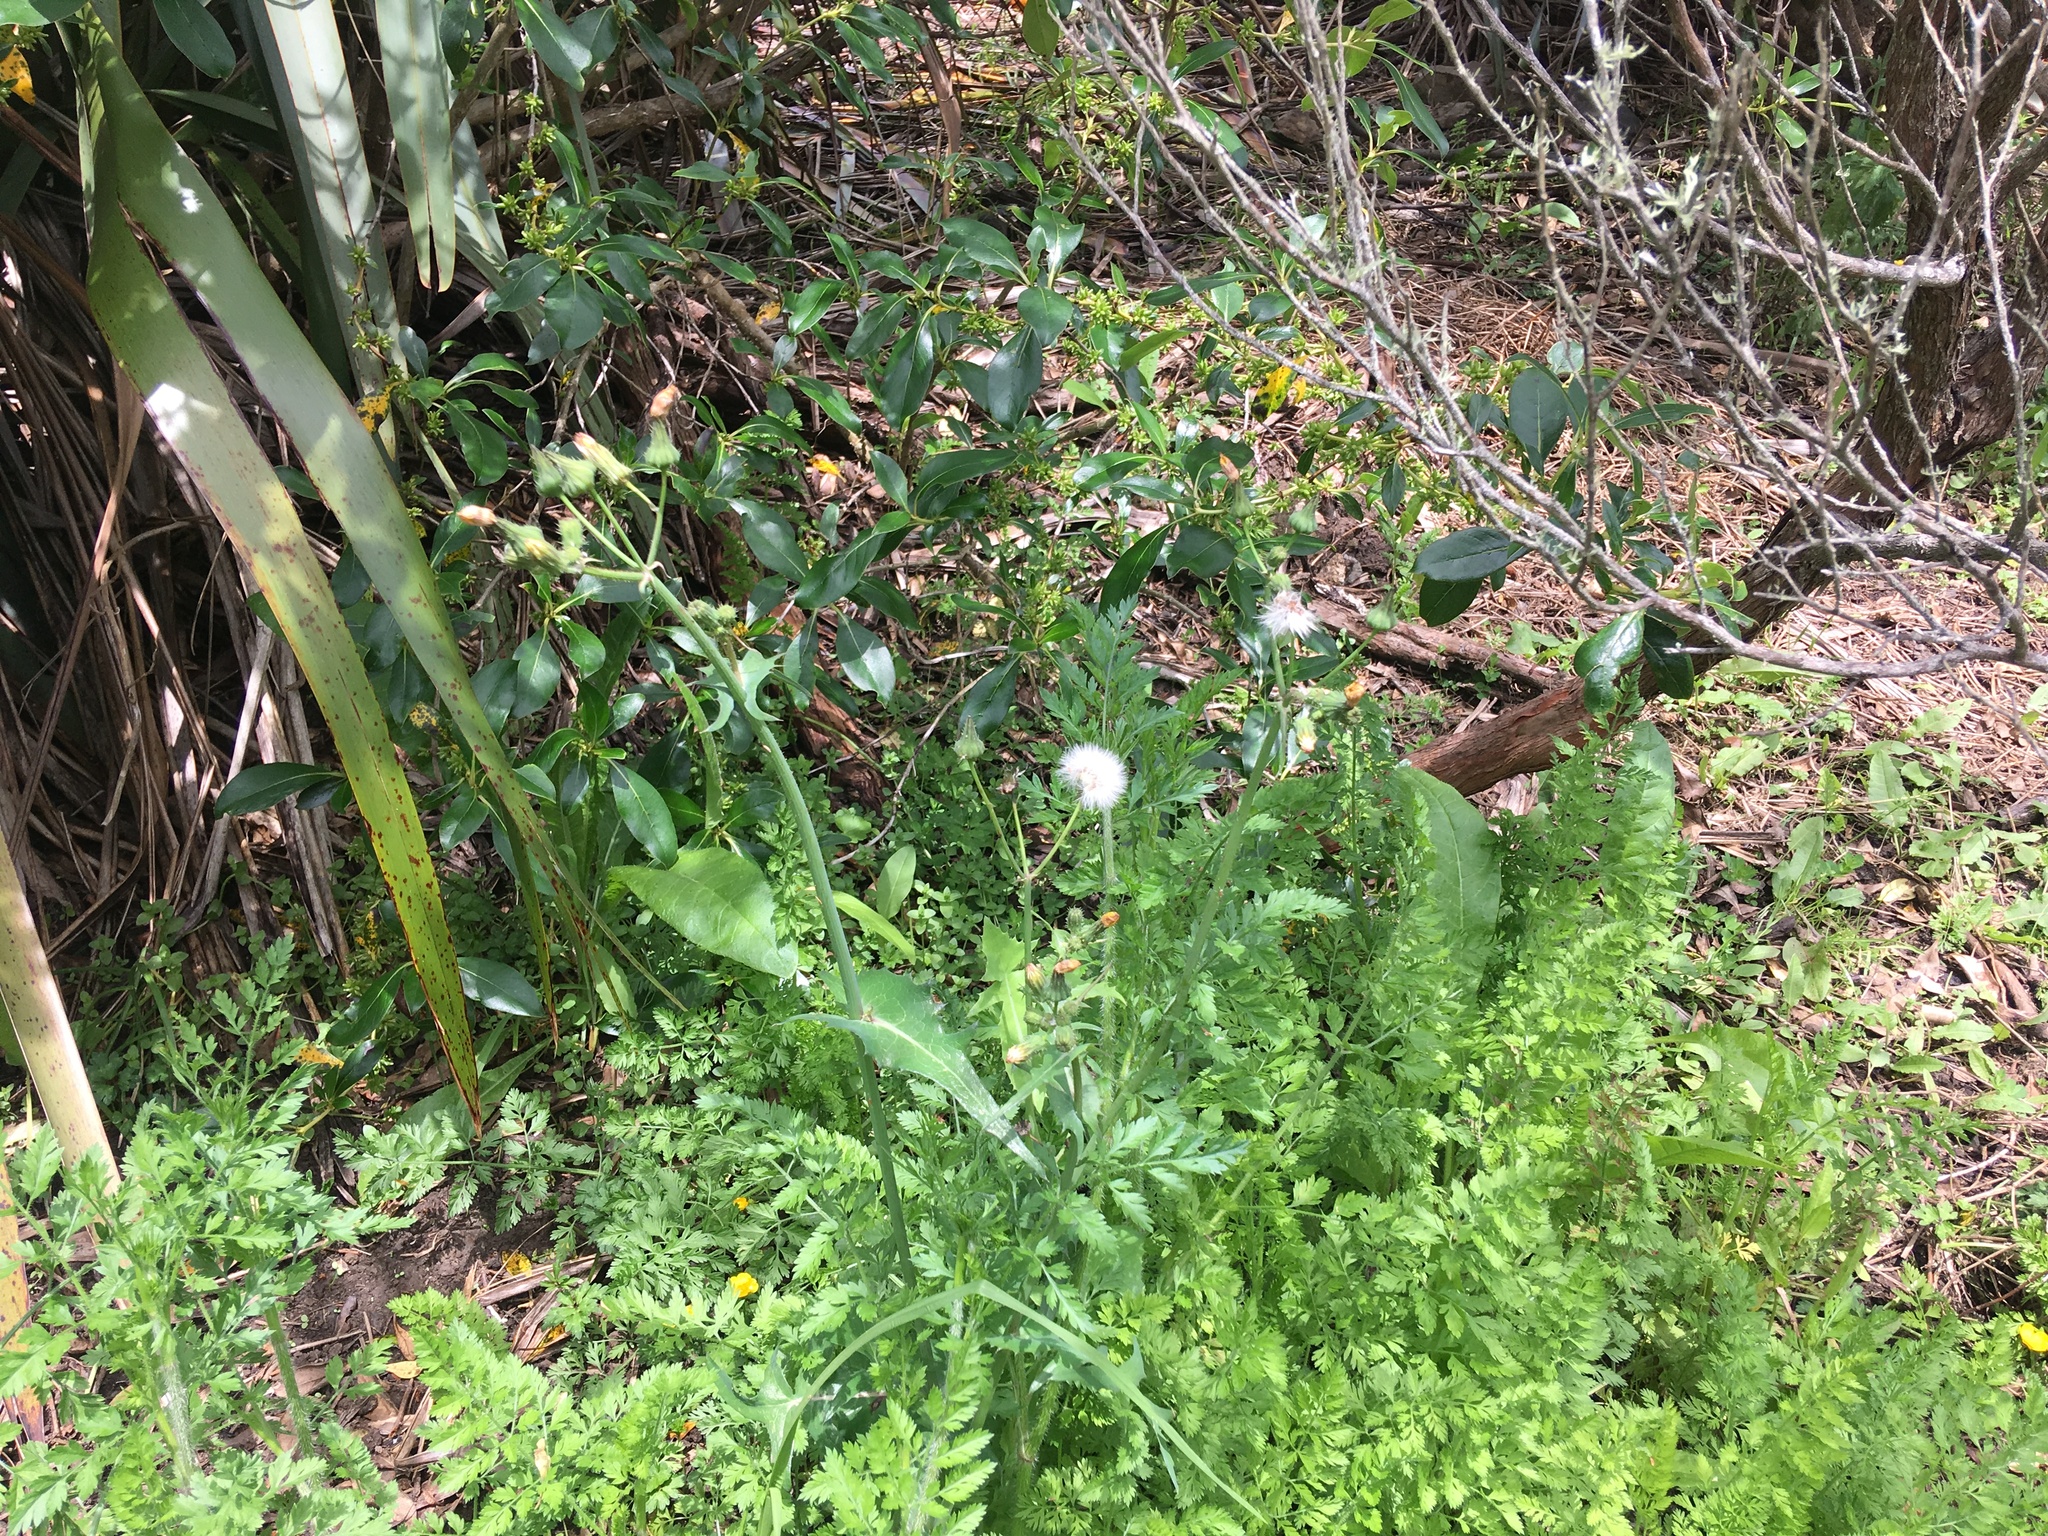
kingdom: Plantae
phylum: Tracheophyta
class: Magnoliopsida
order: Asterales
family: Asteraceae
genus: Sonchus
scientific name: Sonchus oleraceus
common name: Common sowthistle
